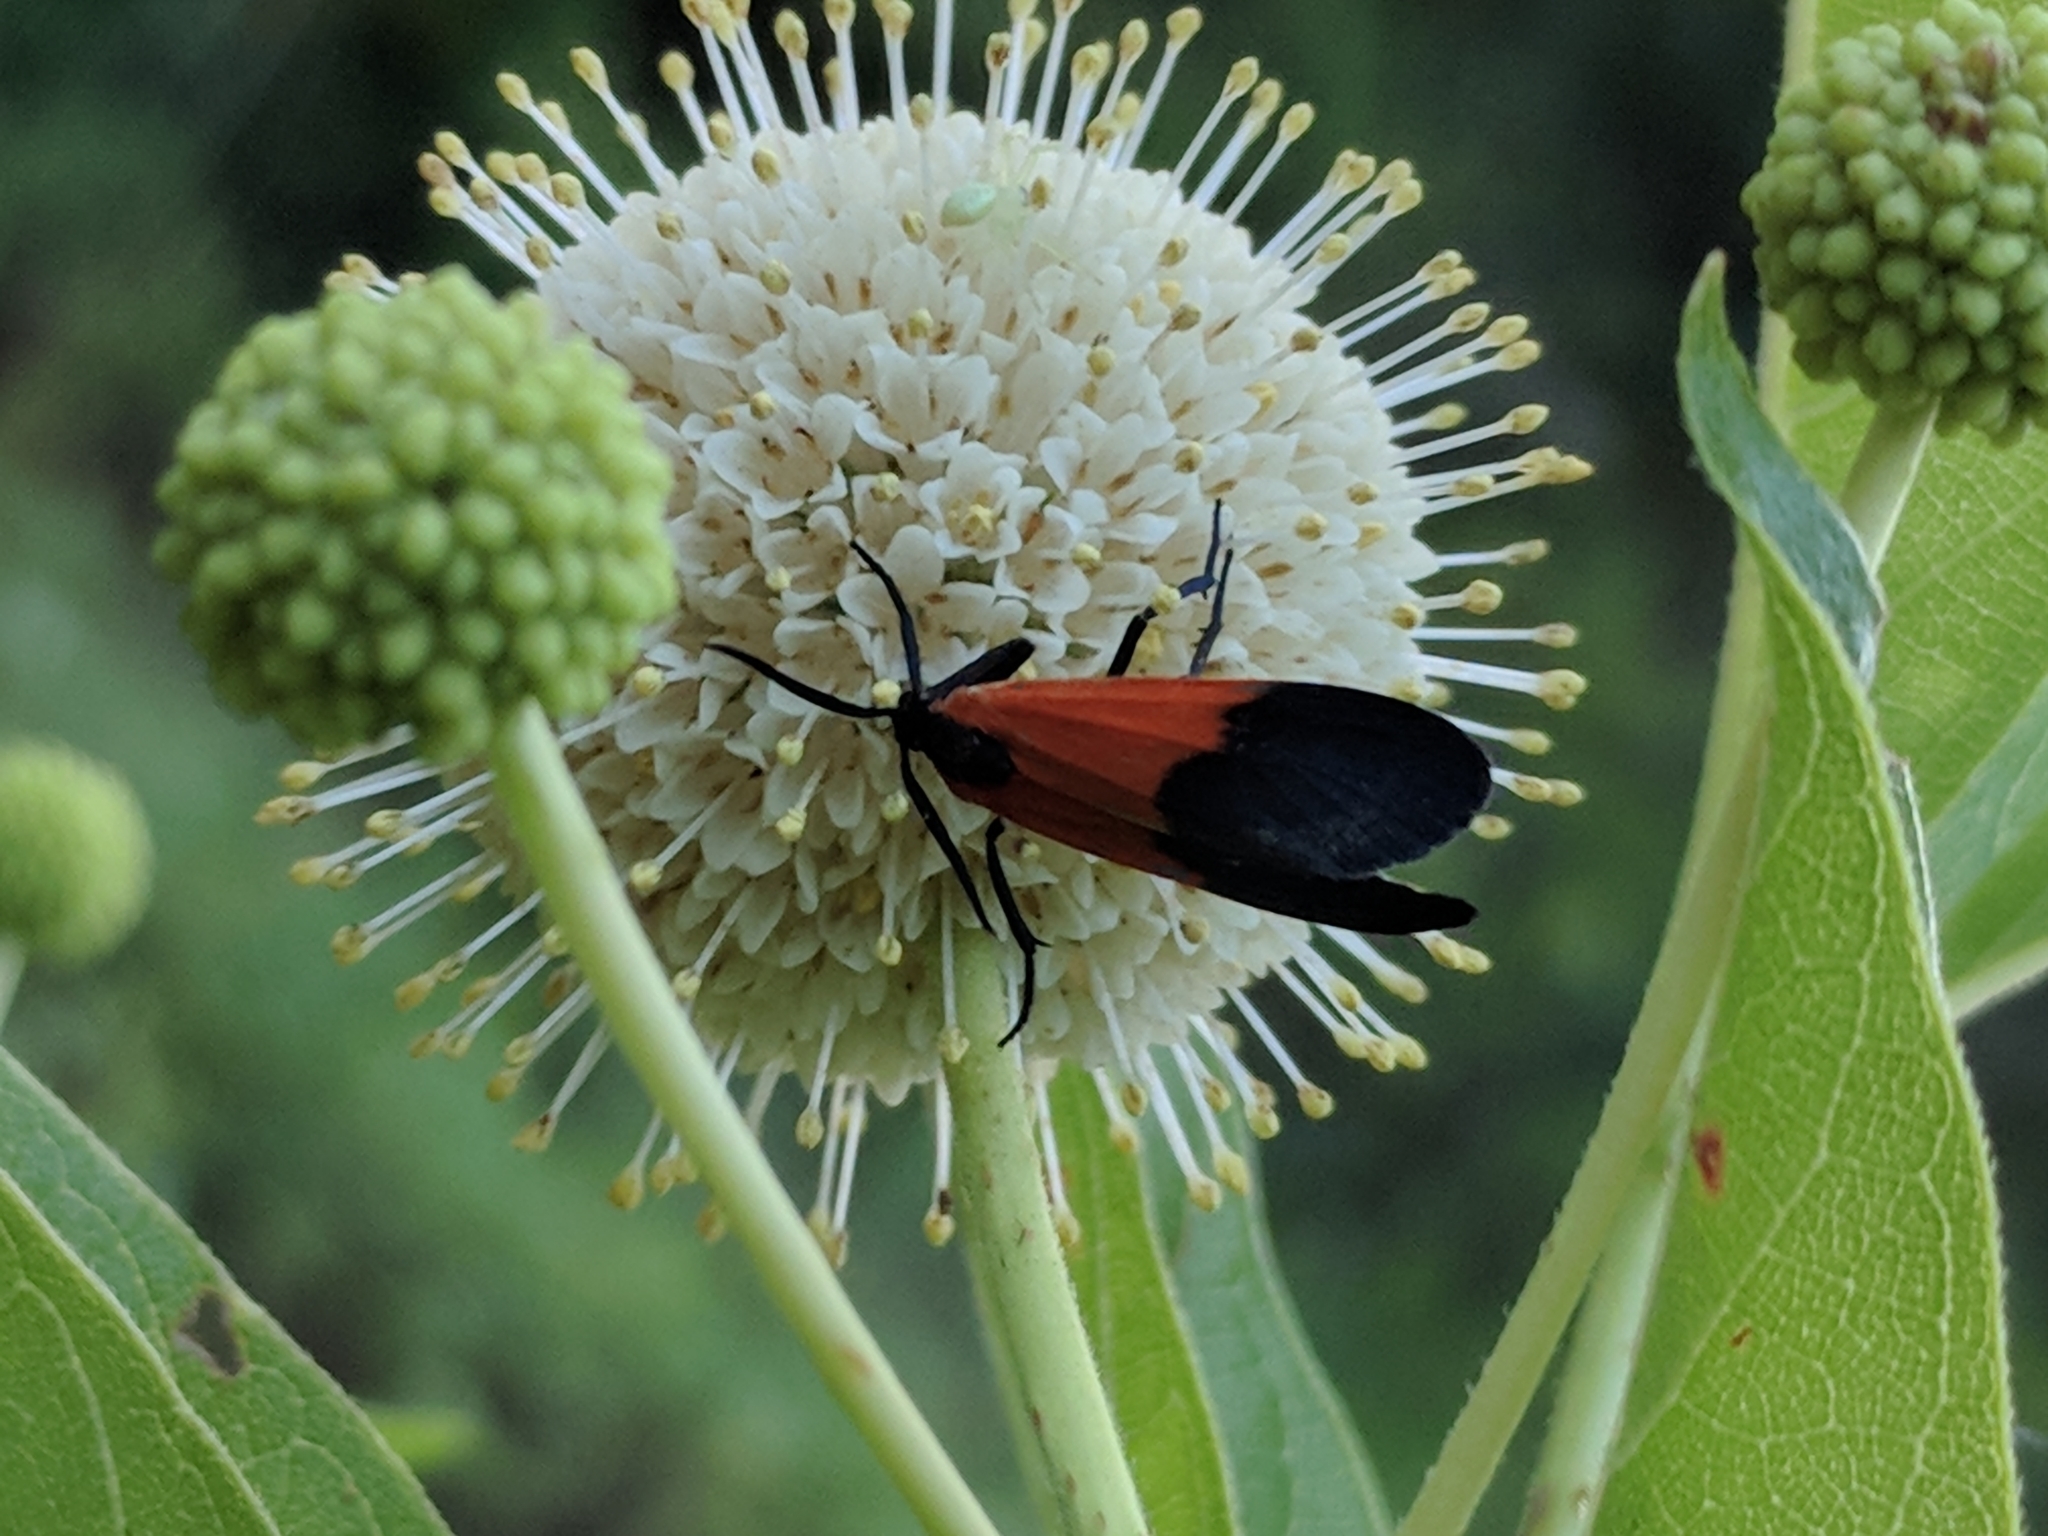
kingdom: Animalia
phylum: Arthropoda
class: Insecta
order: Lepidoptera
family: Erebidae
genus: Lycomorpha
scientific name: Lycomorpha pholus
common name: Black-and-yellow lichen moth
